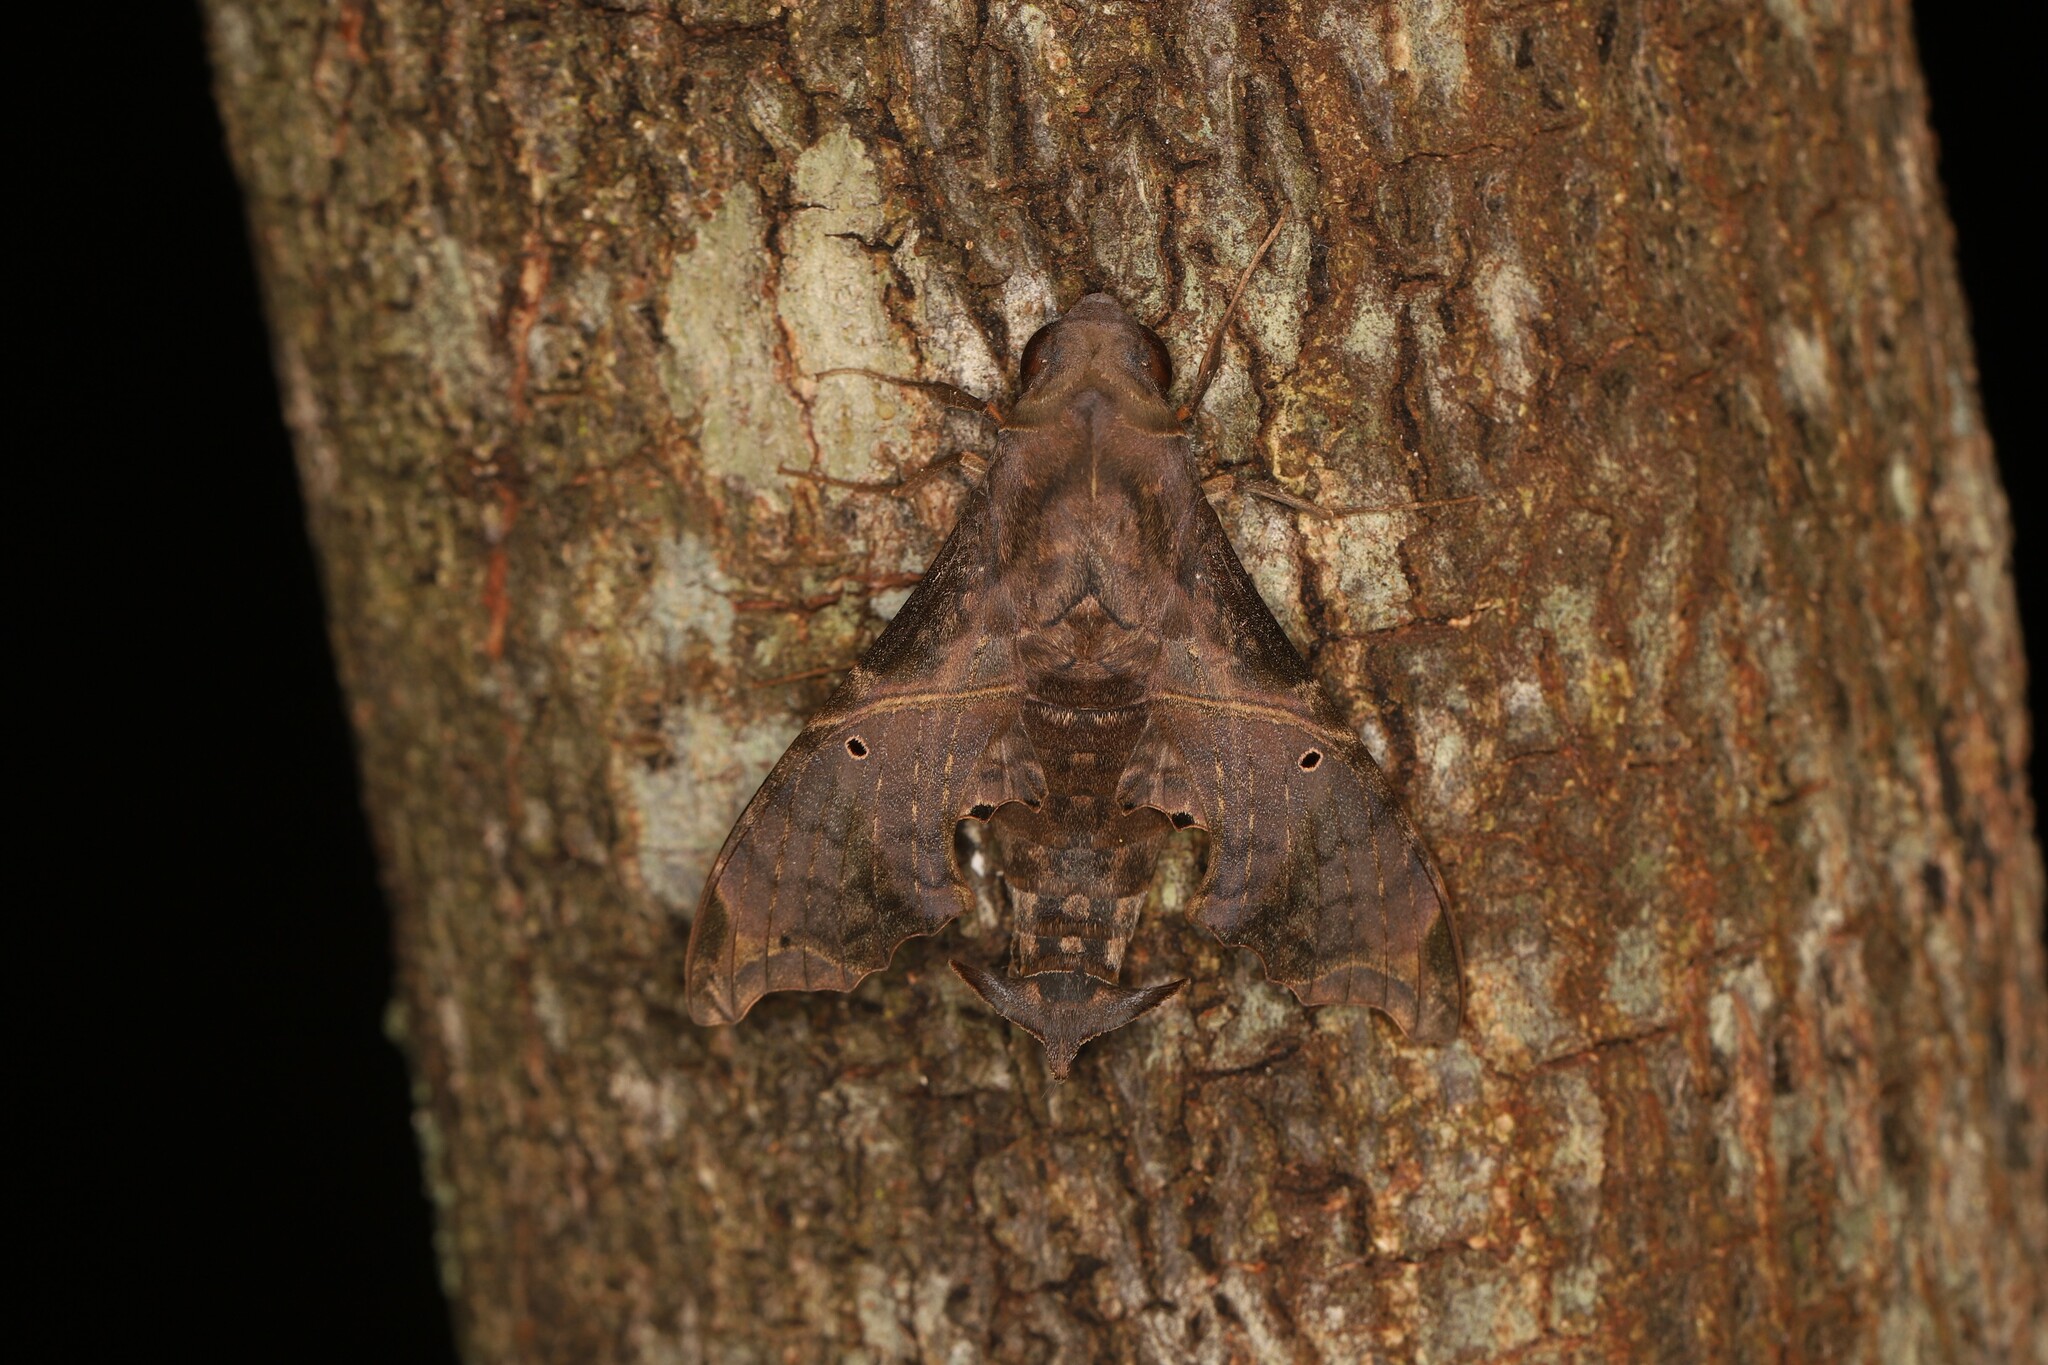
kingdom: Animalia
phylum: Arthropoda
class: Insecta
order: Lepidoptera
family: Sphingidae
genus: Enyo
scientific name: Enyo lugubris
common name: Mournful sphinx
